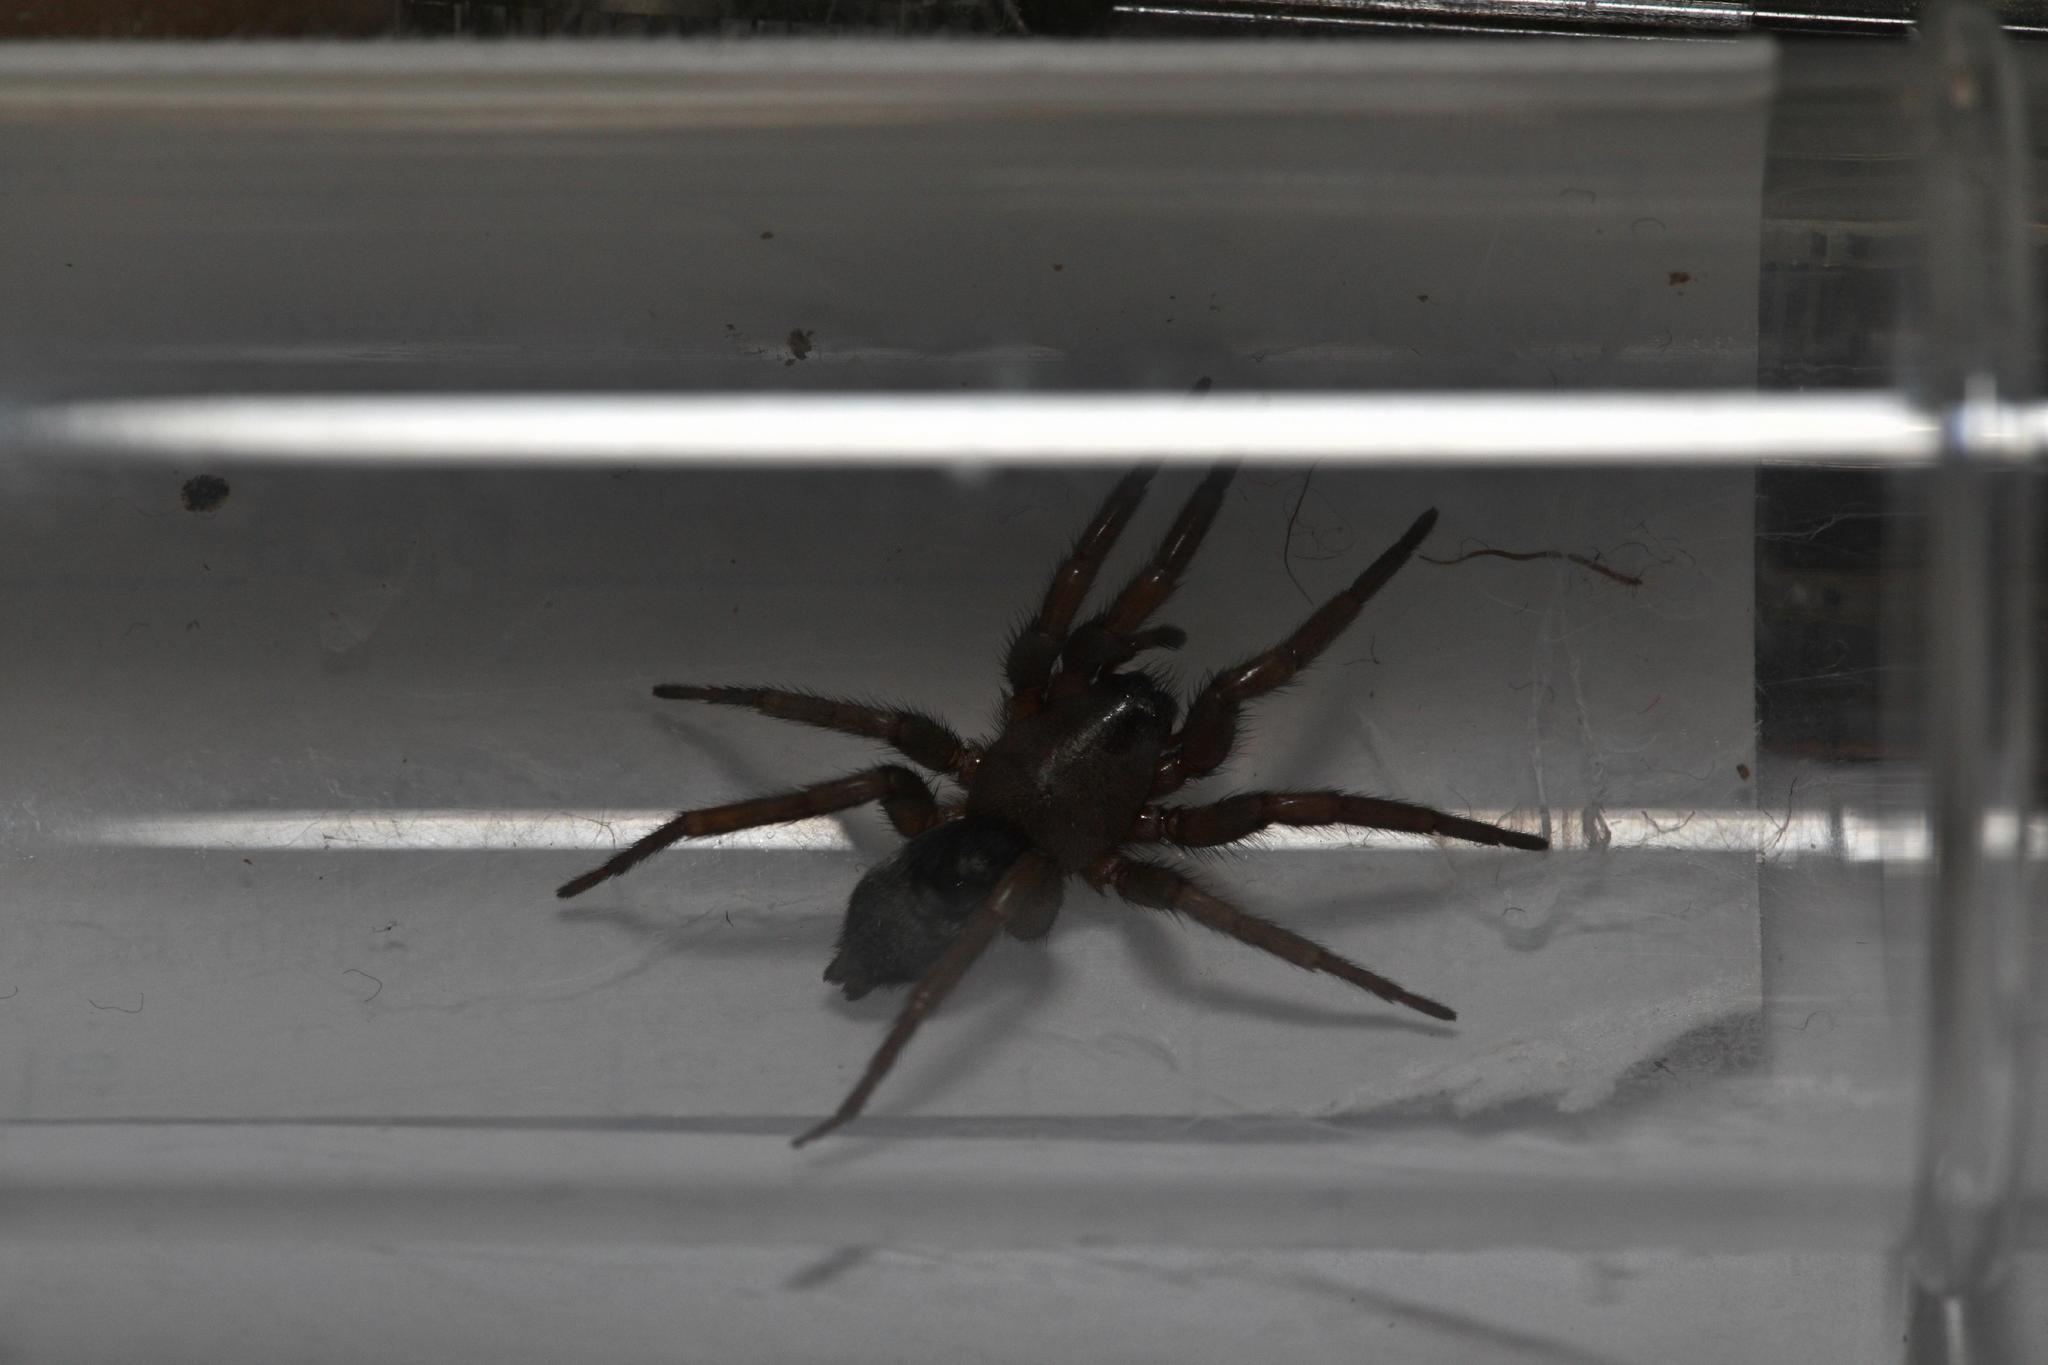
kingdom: Animalia
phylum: Arthropoda
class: Arachnida
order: Araneae
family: Gnaphosidae
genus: Scotophaeus
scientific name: Scotophaeus blackwalli
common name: Mouse spider
